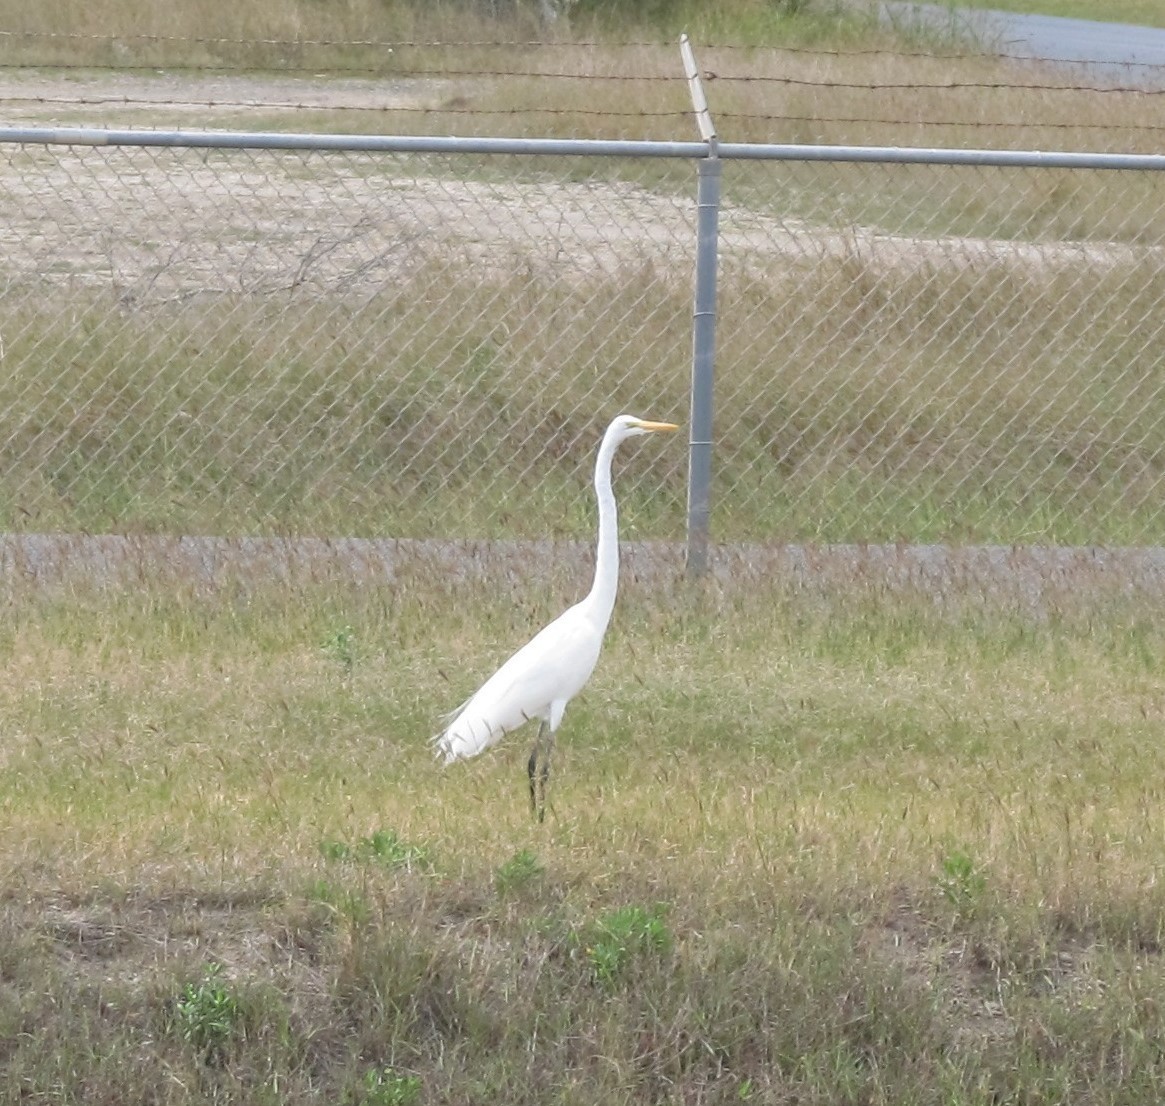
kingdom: Animalia
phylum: Chordata
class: Aves
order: Pelecaniformes
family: Ardeidae
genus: Ardea
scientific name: Ardea alba
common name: Great egret
